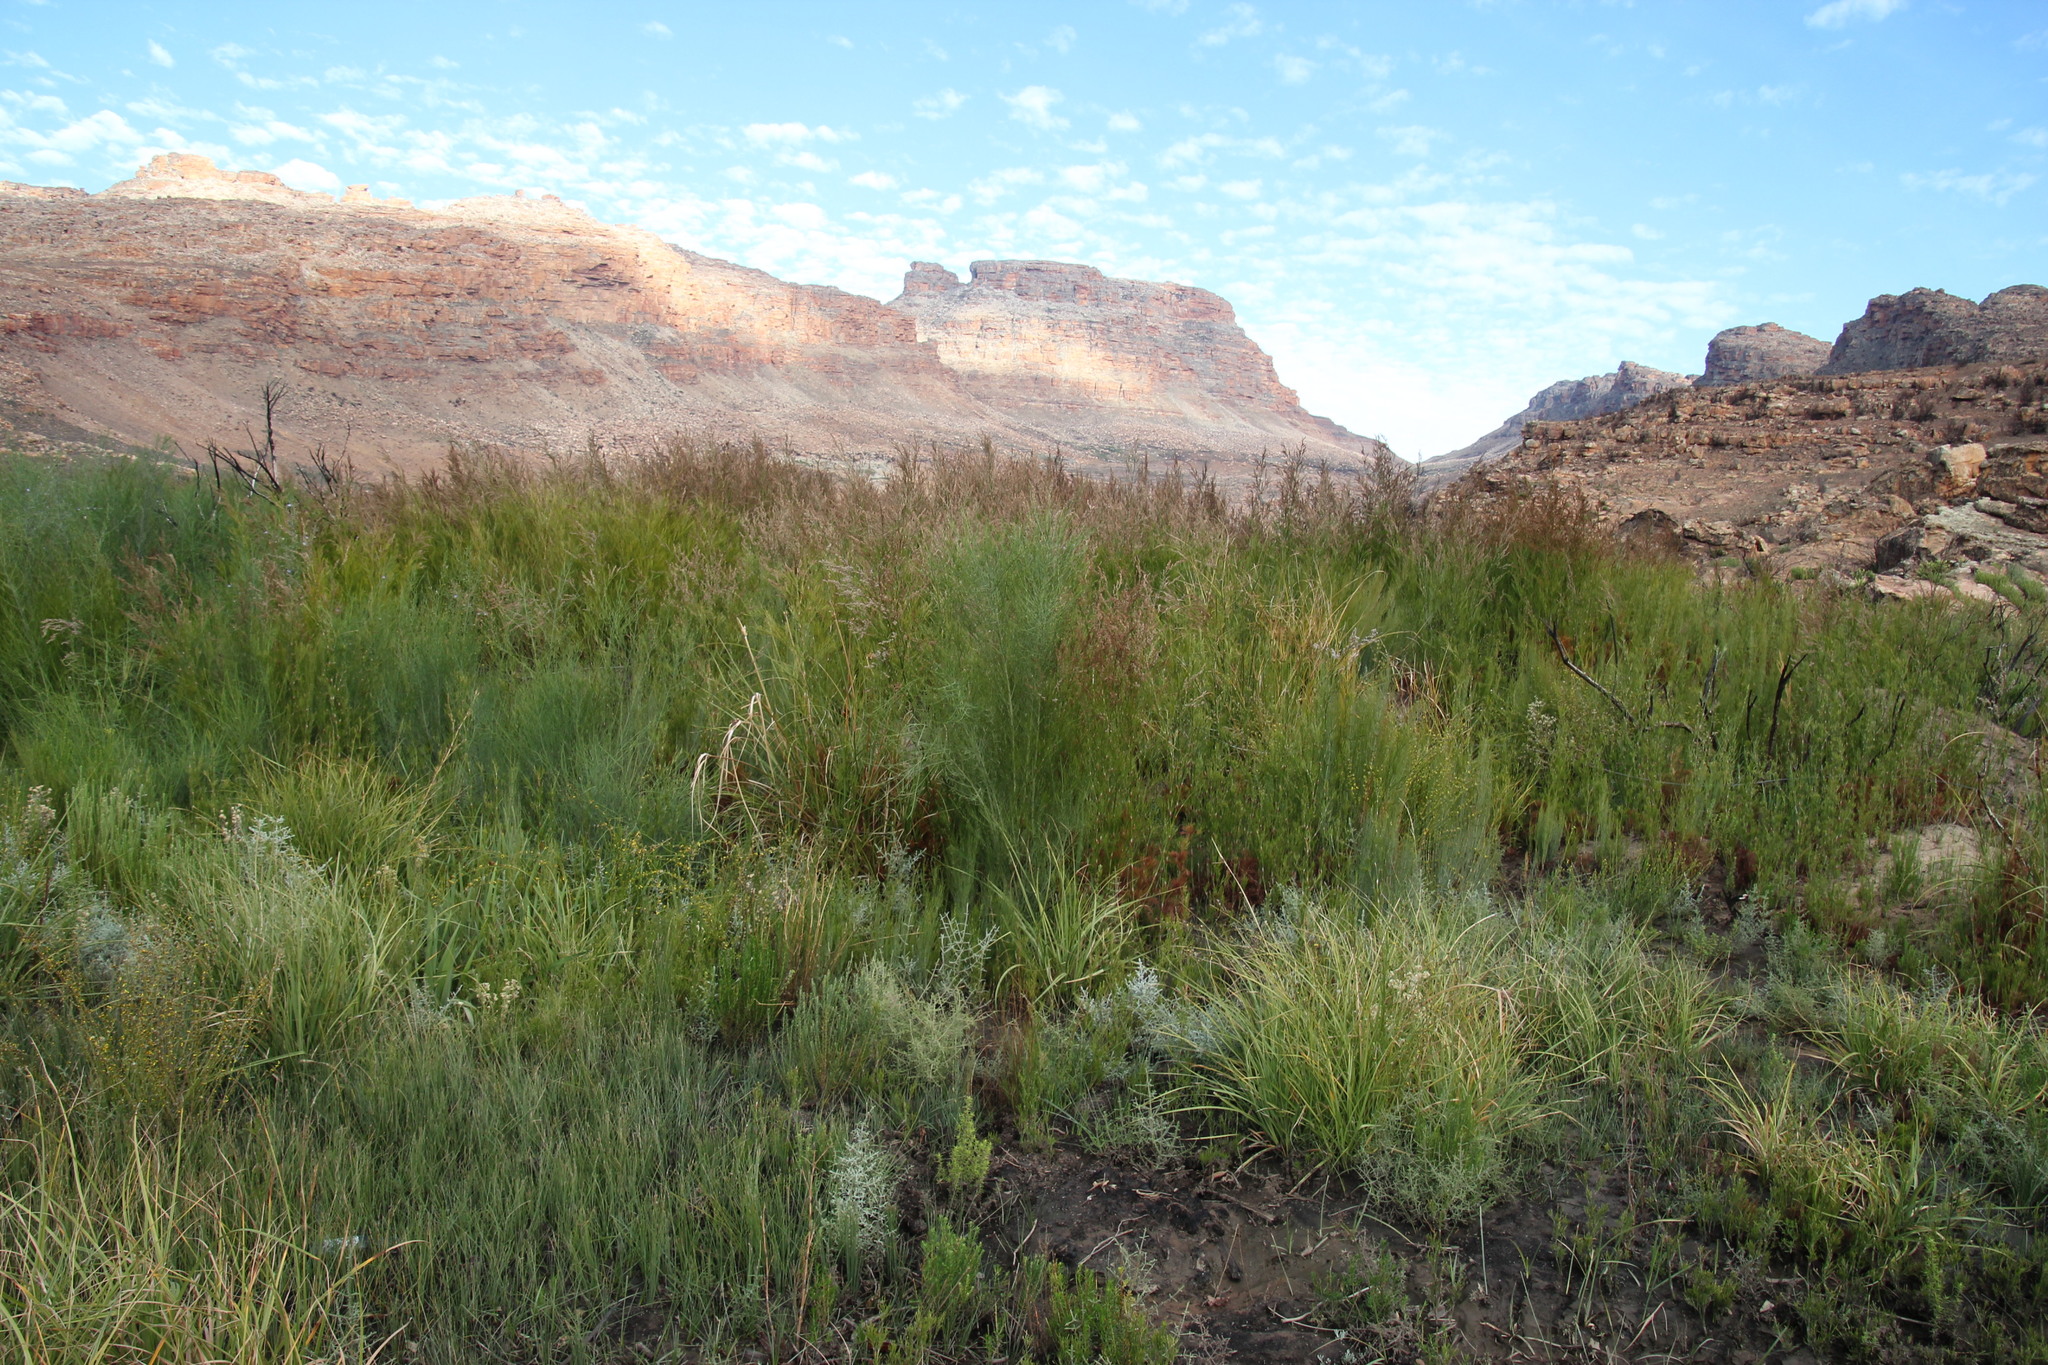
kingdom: Plantae
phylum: Tracheophyta
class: Magnoliopsida
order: Fabales
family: Fabaceae
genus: Psoralea
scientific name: Psoralea verrucosa
